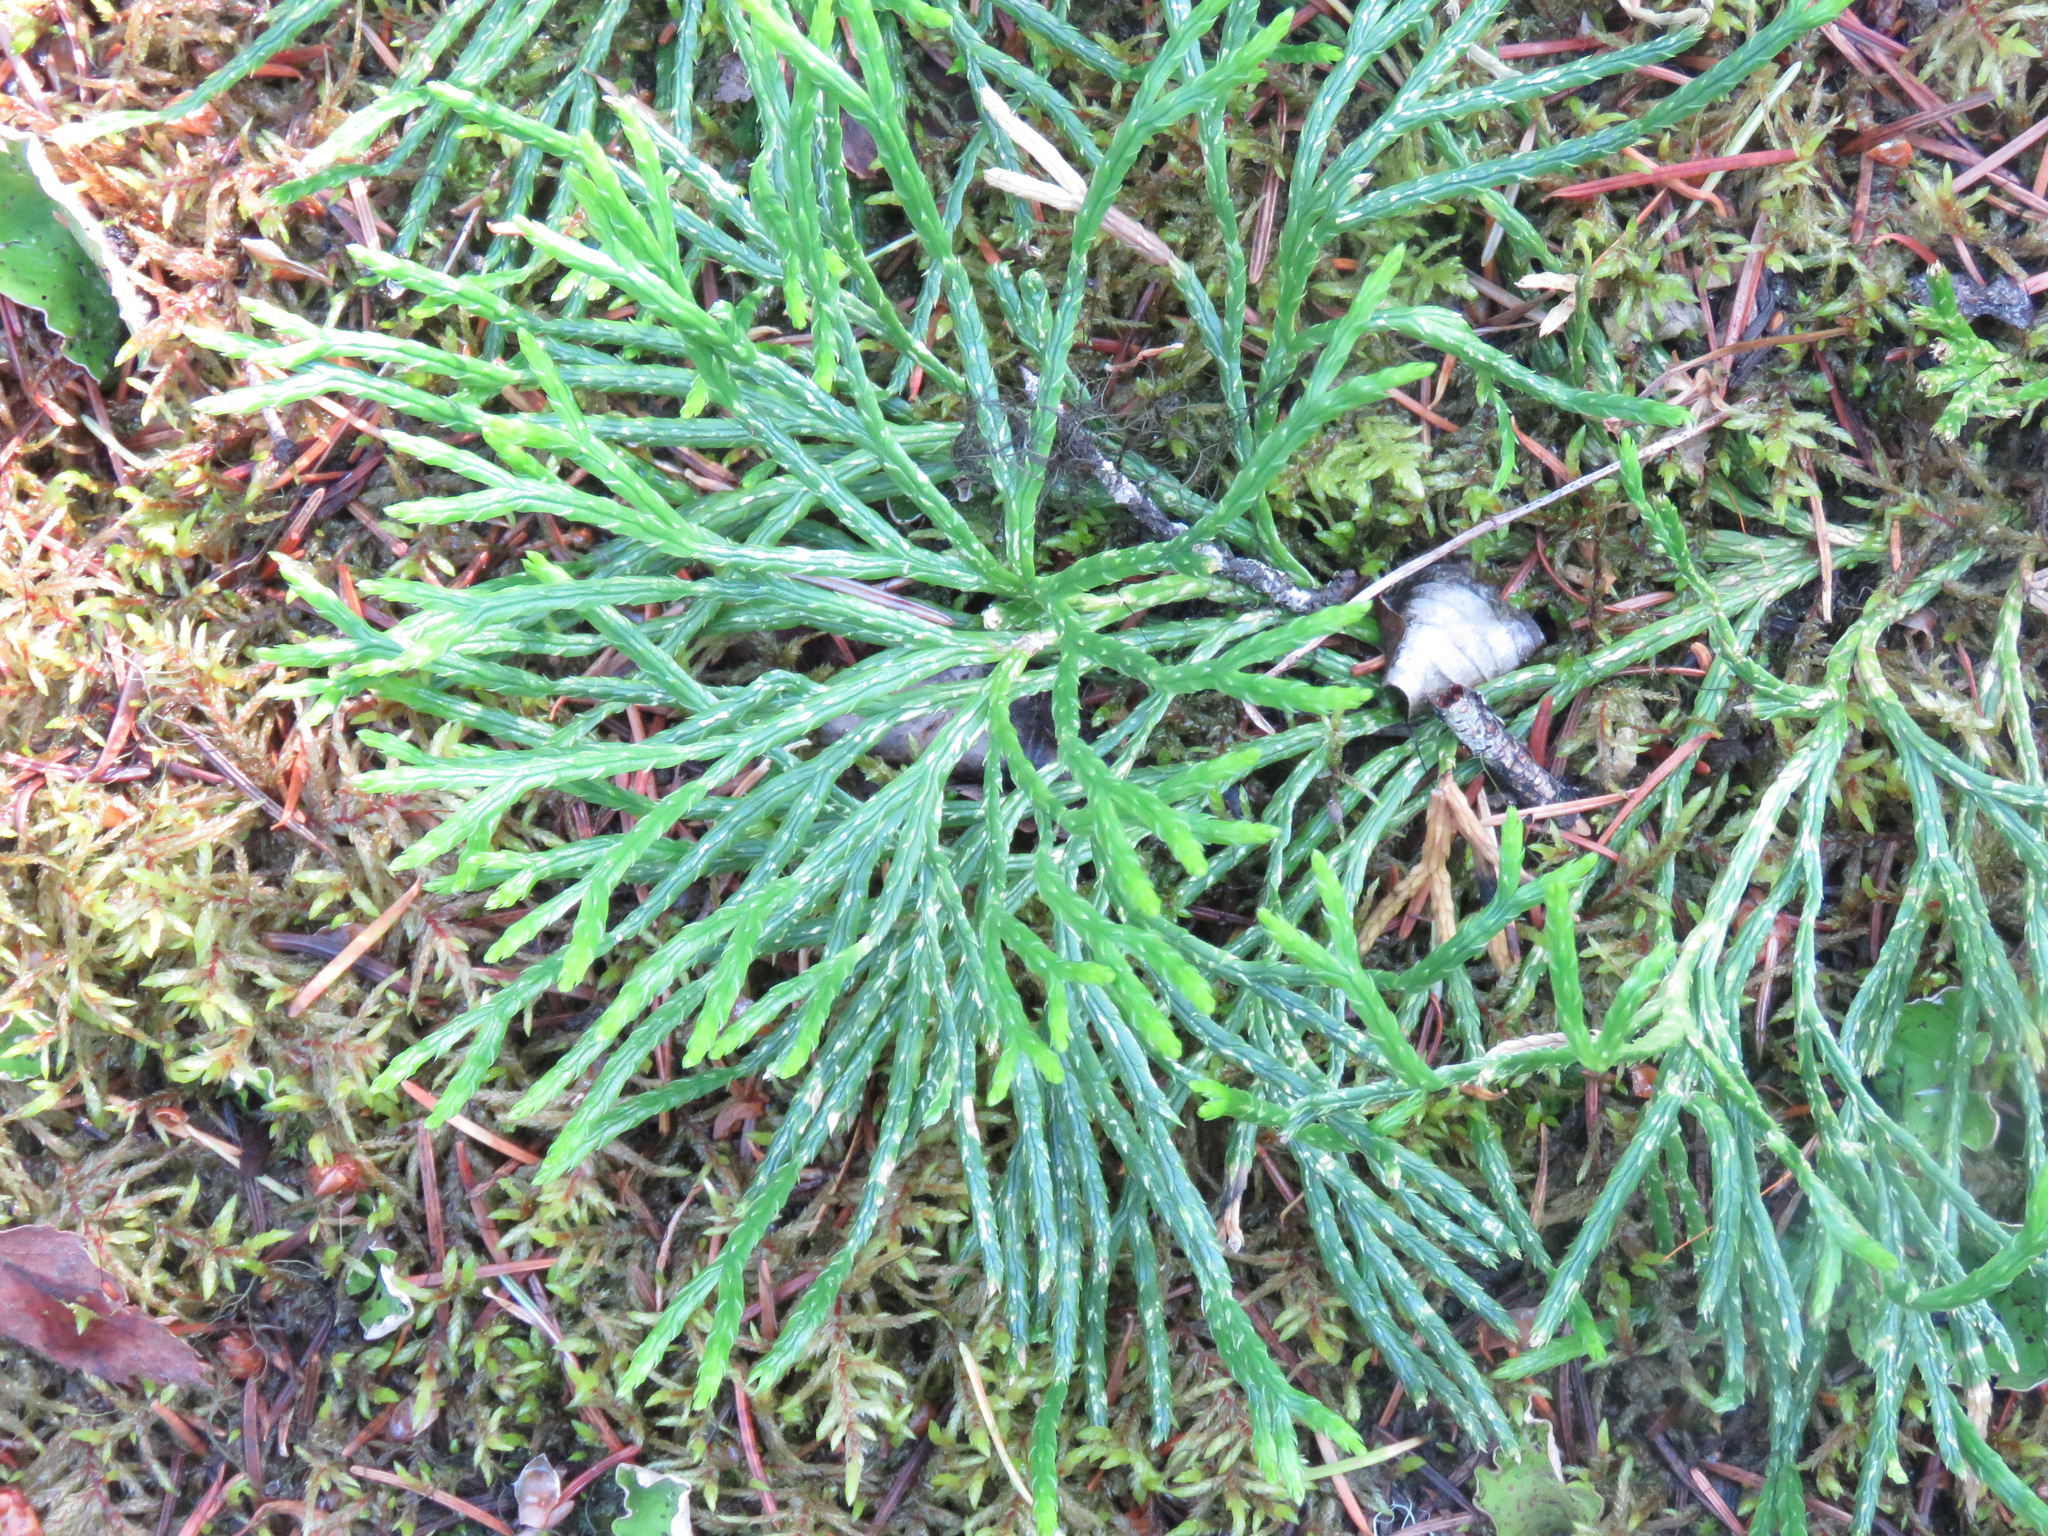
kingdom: Plantae
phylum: Tracheophyta
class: Lycopodiopsida
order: Lycopodiales
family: Lycopodiaceae
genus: Diphasiastrum
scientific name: Diphasiastrum complanatum
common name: Northern running-pine
